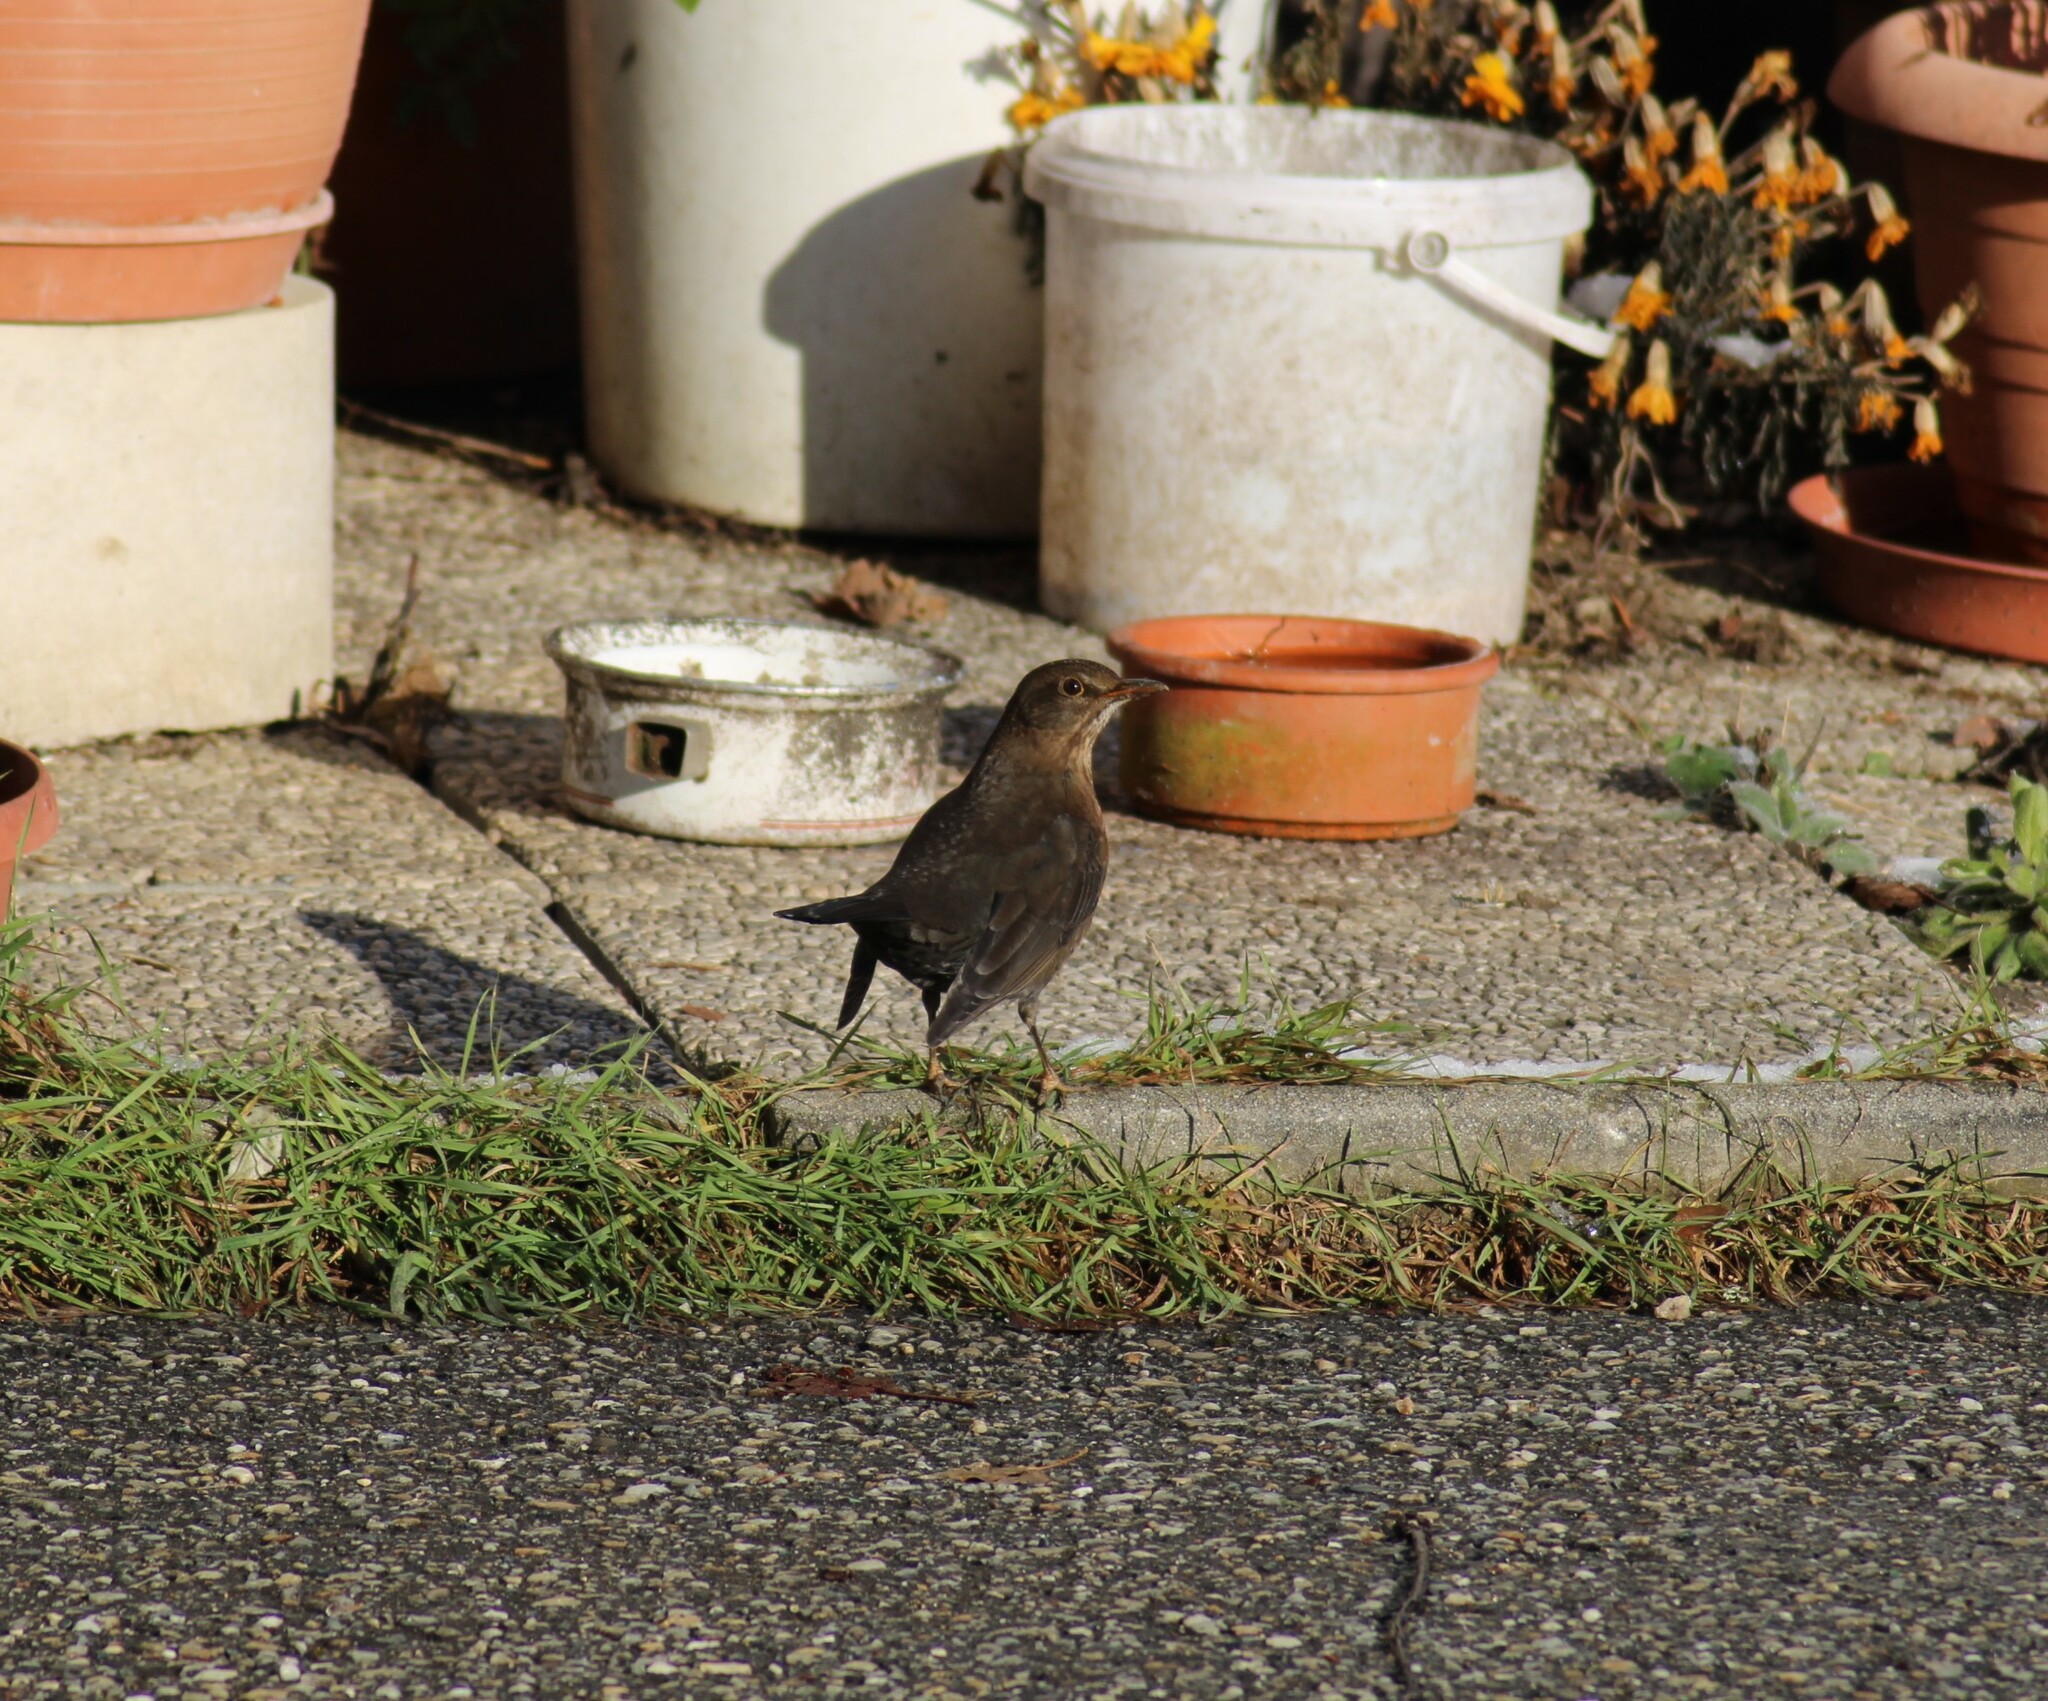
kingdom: Animalia
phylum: Chordata
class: Aves
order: Passeriformes
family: Turdidae
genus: Turdus
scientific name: Turdus merula
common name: Common blackbird
